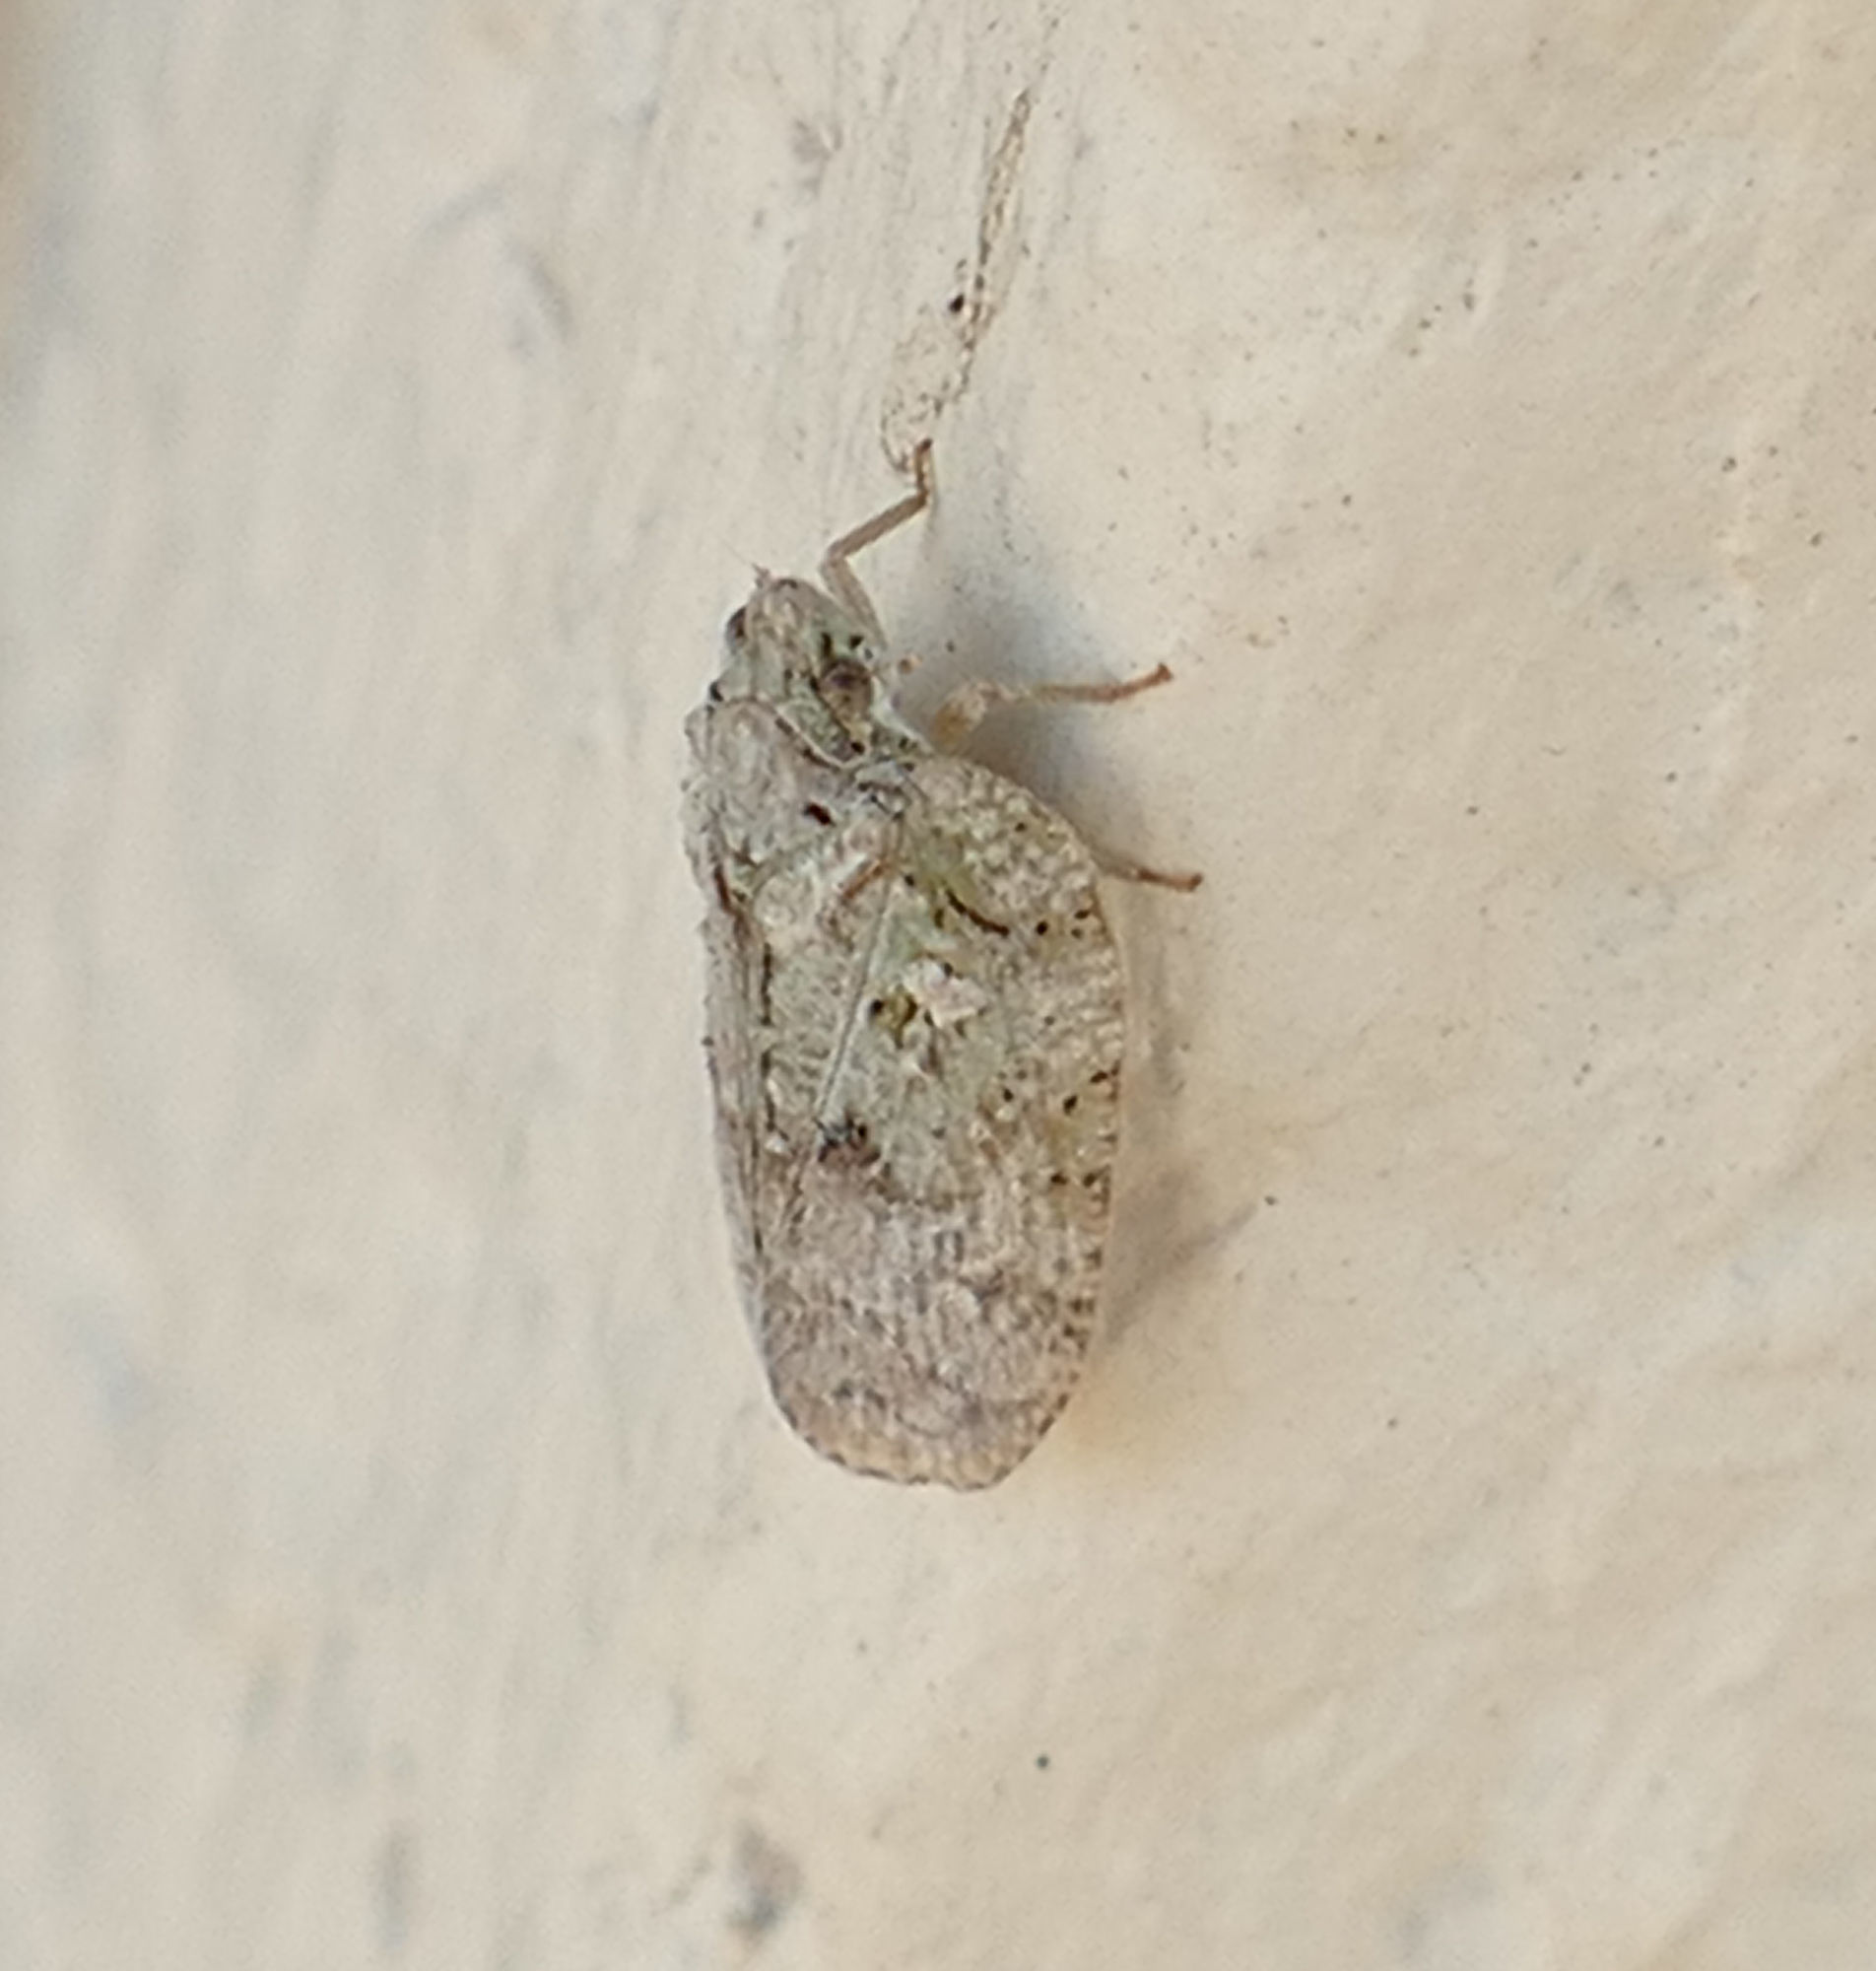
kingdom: Animalia
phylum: Arthropoda
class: Insecta
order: Hemiptera
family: Flatidae
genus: Flatoidinus
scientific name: Flatoidinus punctatus
